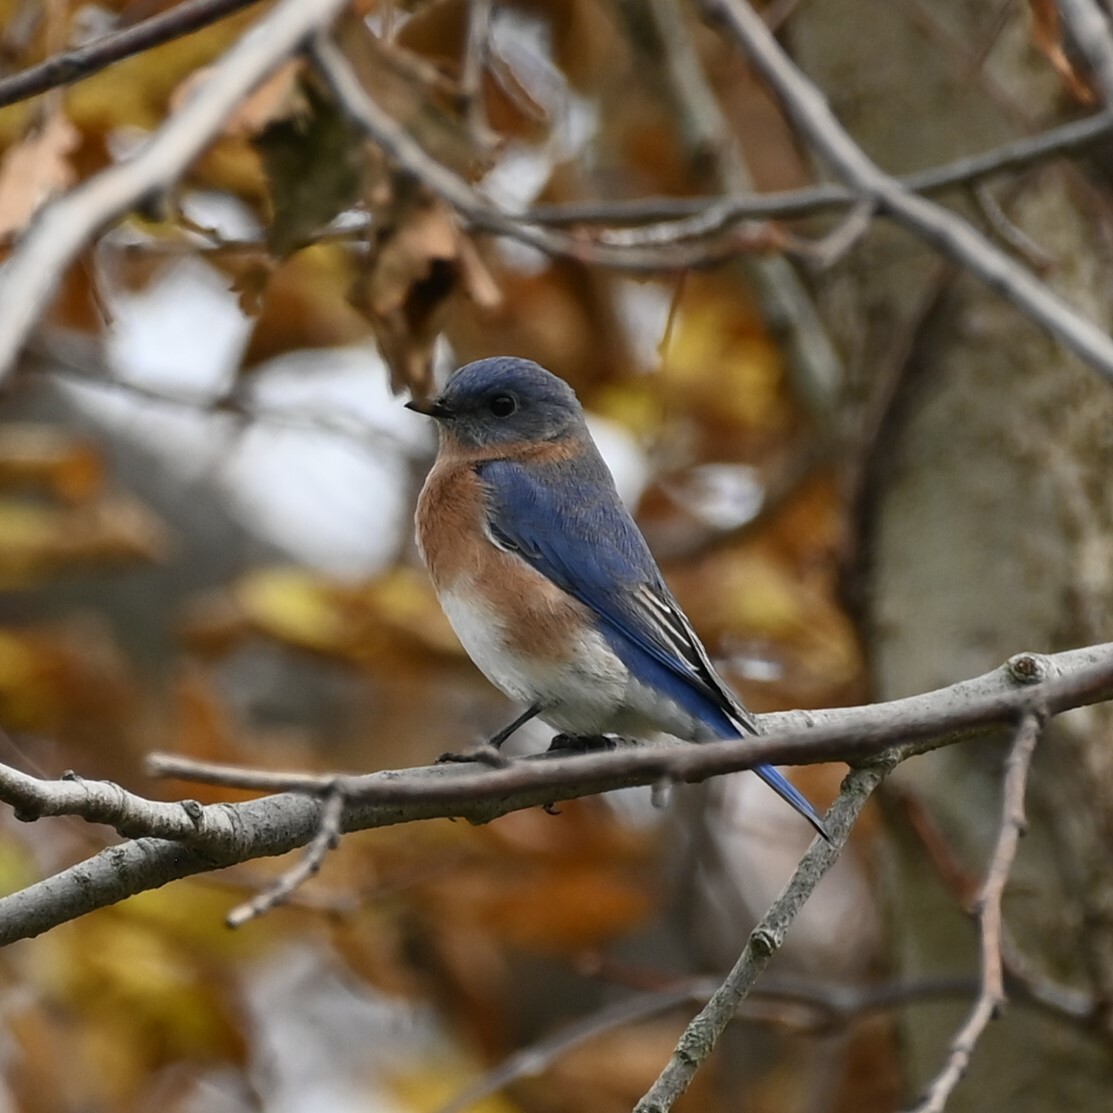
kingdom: Animalia
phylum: Chordata
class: Aves
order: Passeriformes
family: Turdidae
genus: Sialia
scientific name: Sialia sialis
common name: Eastern bluebird
